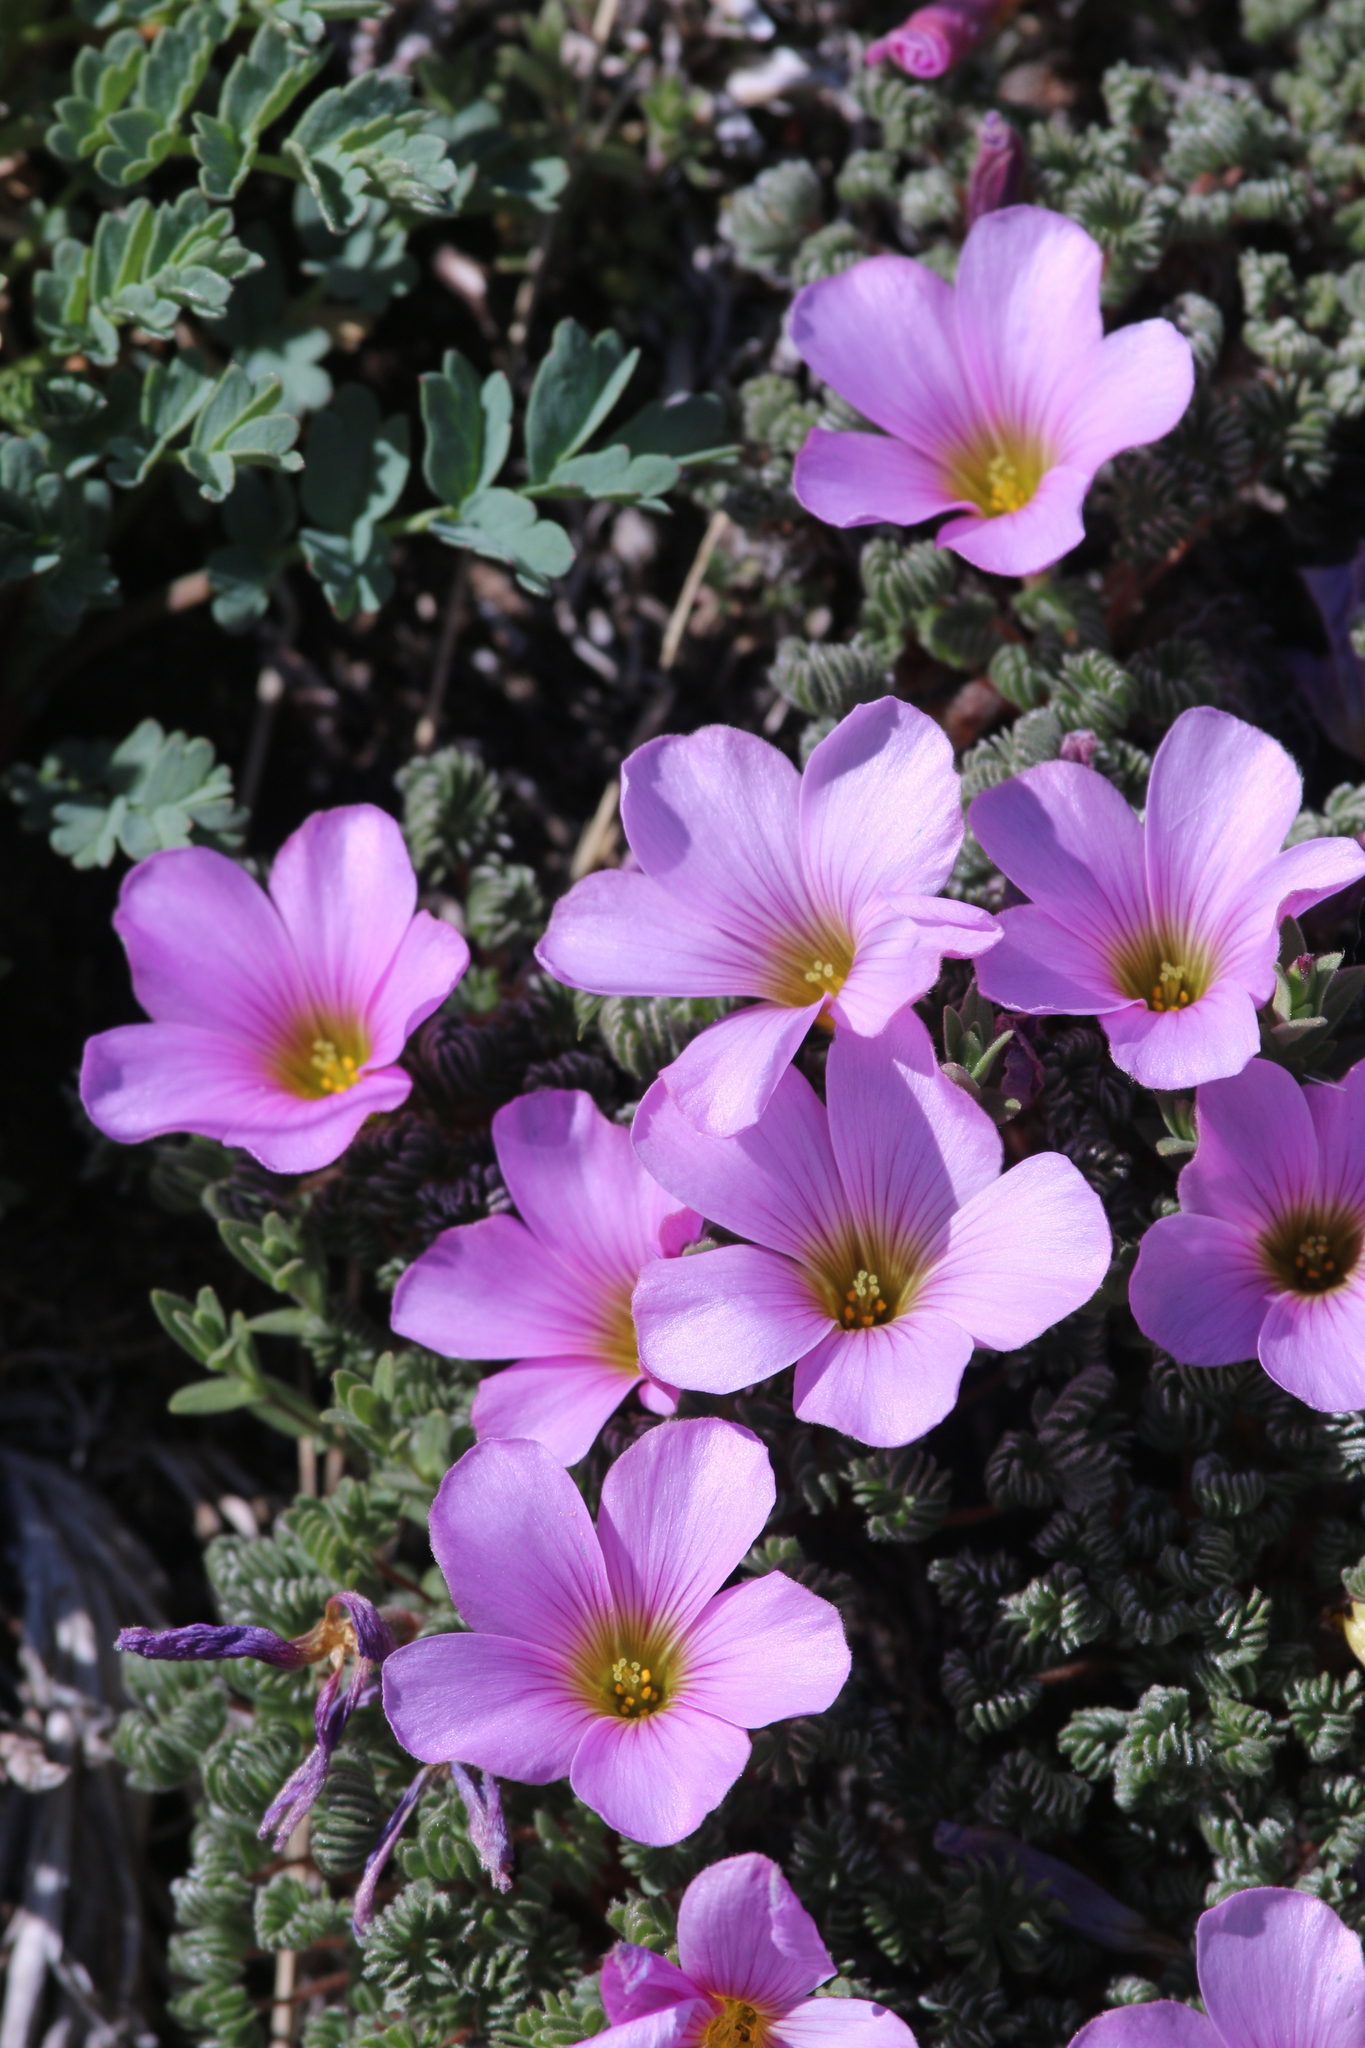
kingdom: Plantae
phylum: Tracheophyta
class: Magnoliopsida
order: Oxalidales
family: Oxalidaceae
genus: Oxalis
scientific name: Oxalis enneaphylla
